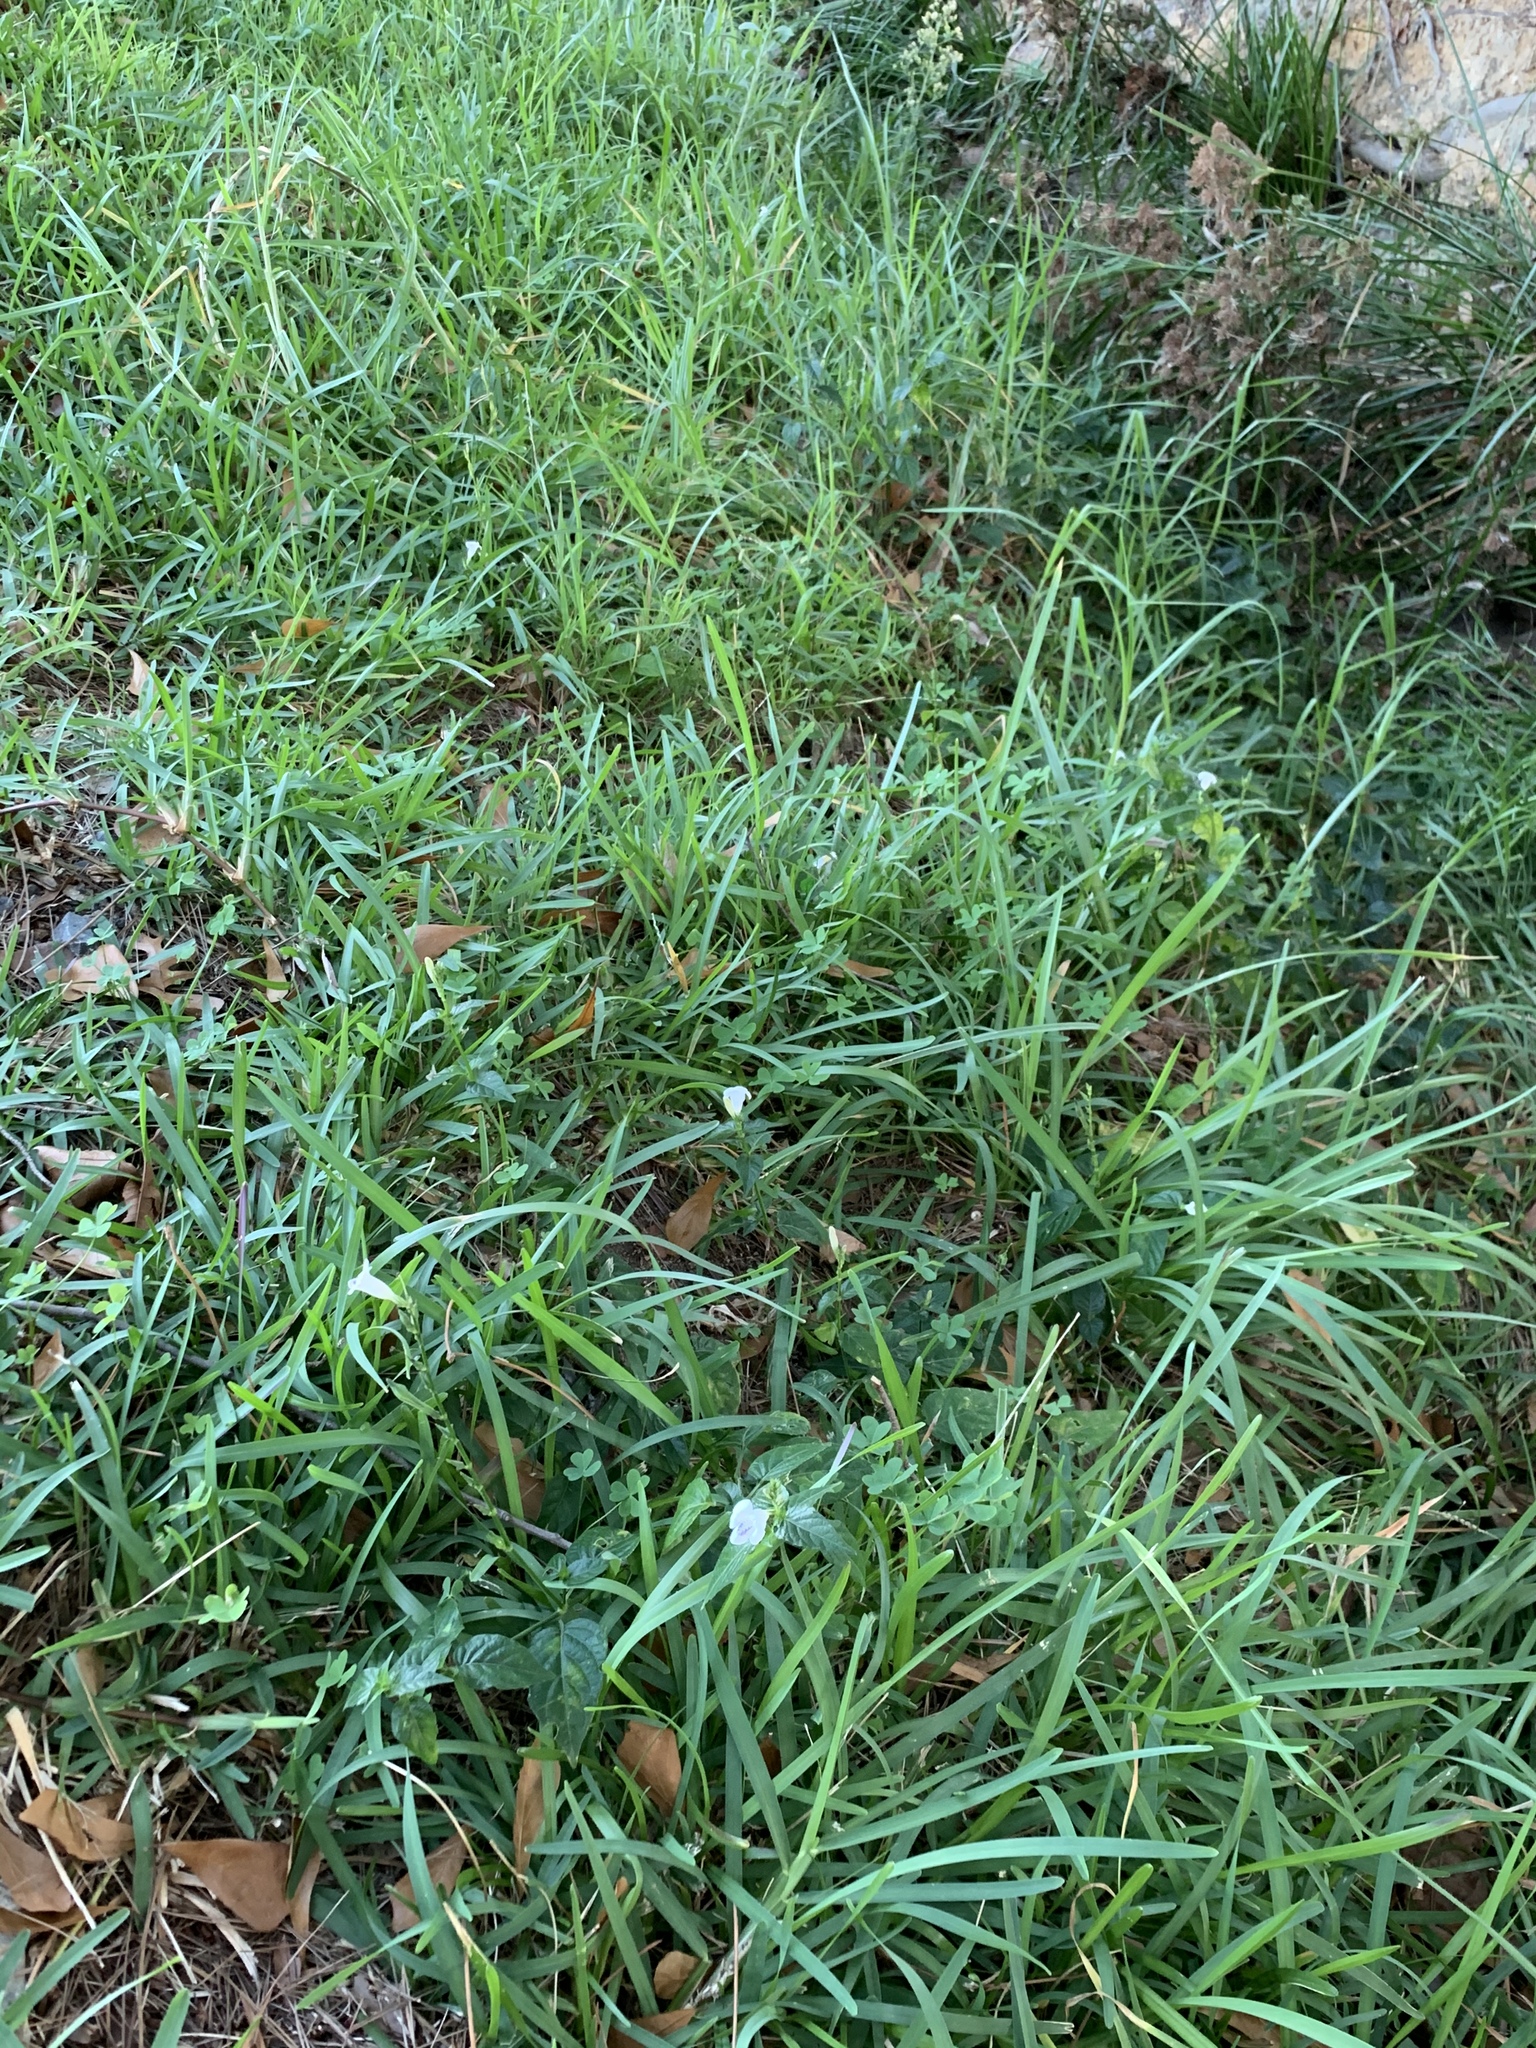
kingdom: Plantae
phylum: Tracheophyta
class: Magnoliopsida
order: Lamiales
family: Acanthaceae
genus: Asystasia
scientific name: Asystasia intrusa
